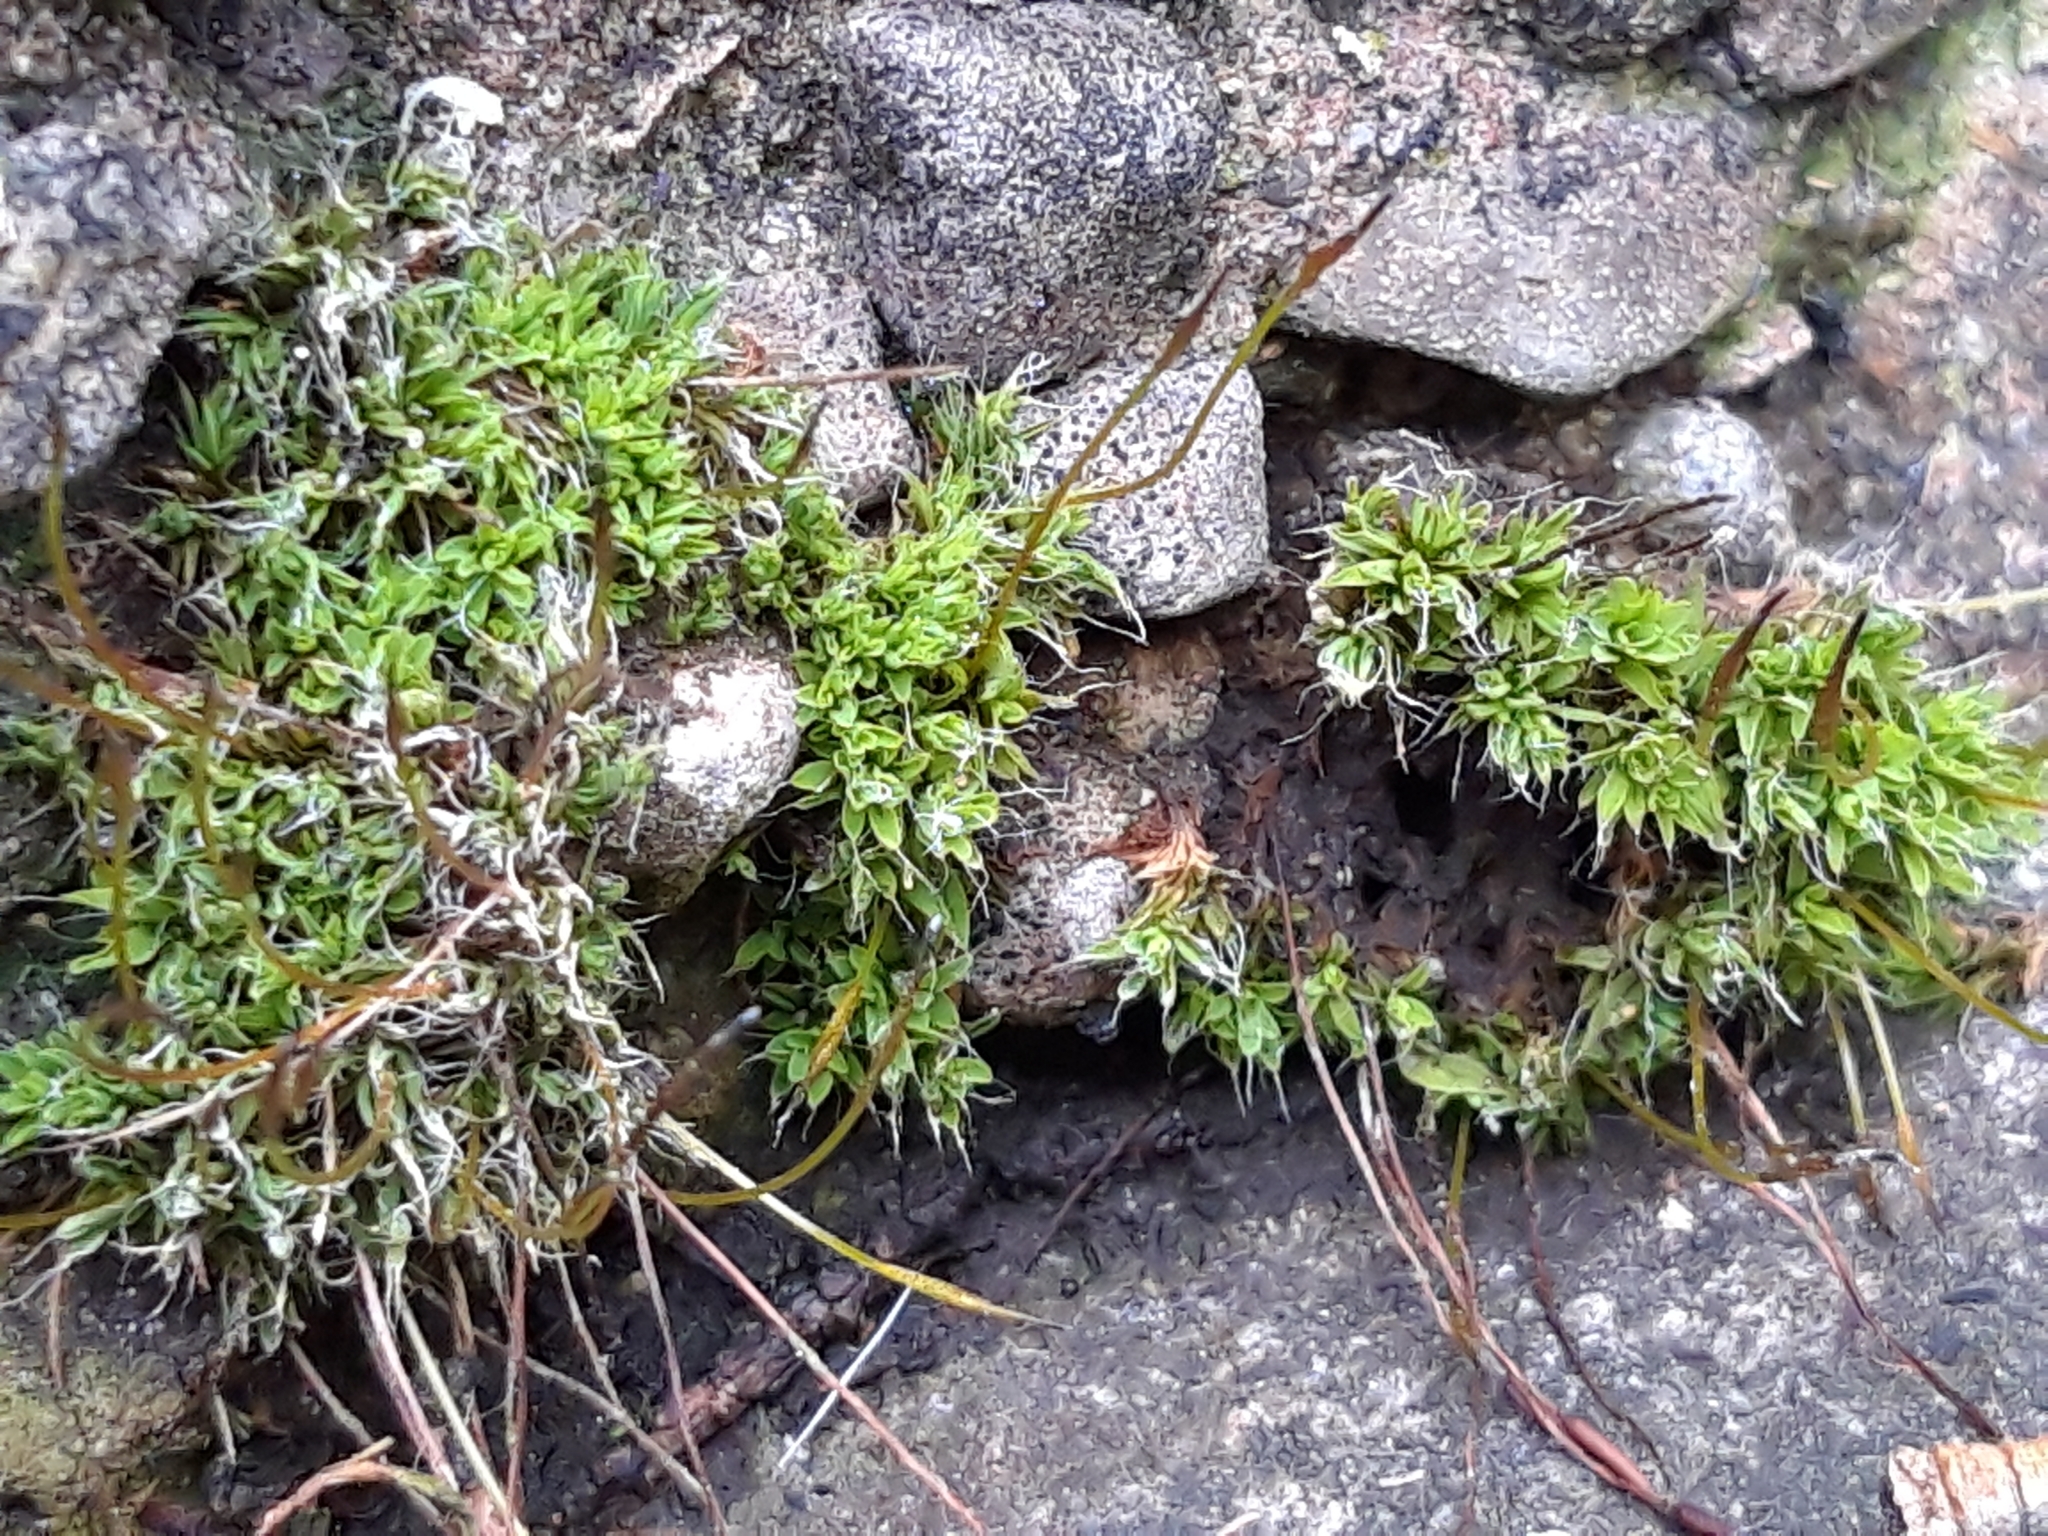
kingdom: Plantae
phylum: Bryophyta
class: Bryopsida
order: Pottiales
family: Pottiaceae
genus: Tortula
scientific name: Tortula muralis
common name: Wall screw-moss
